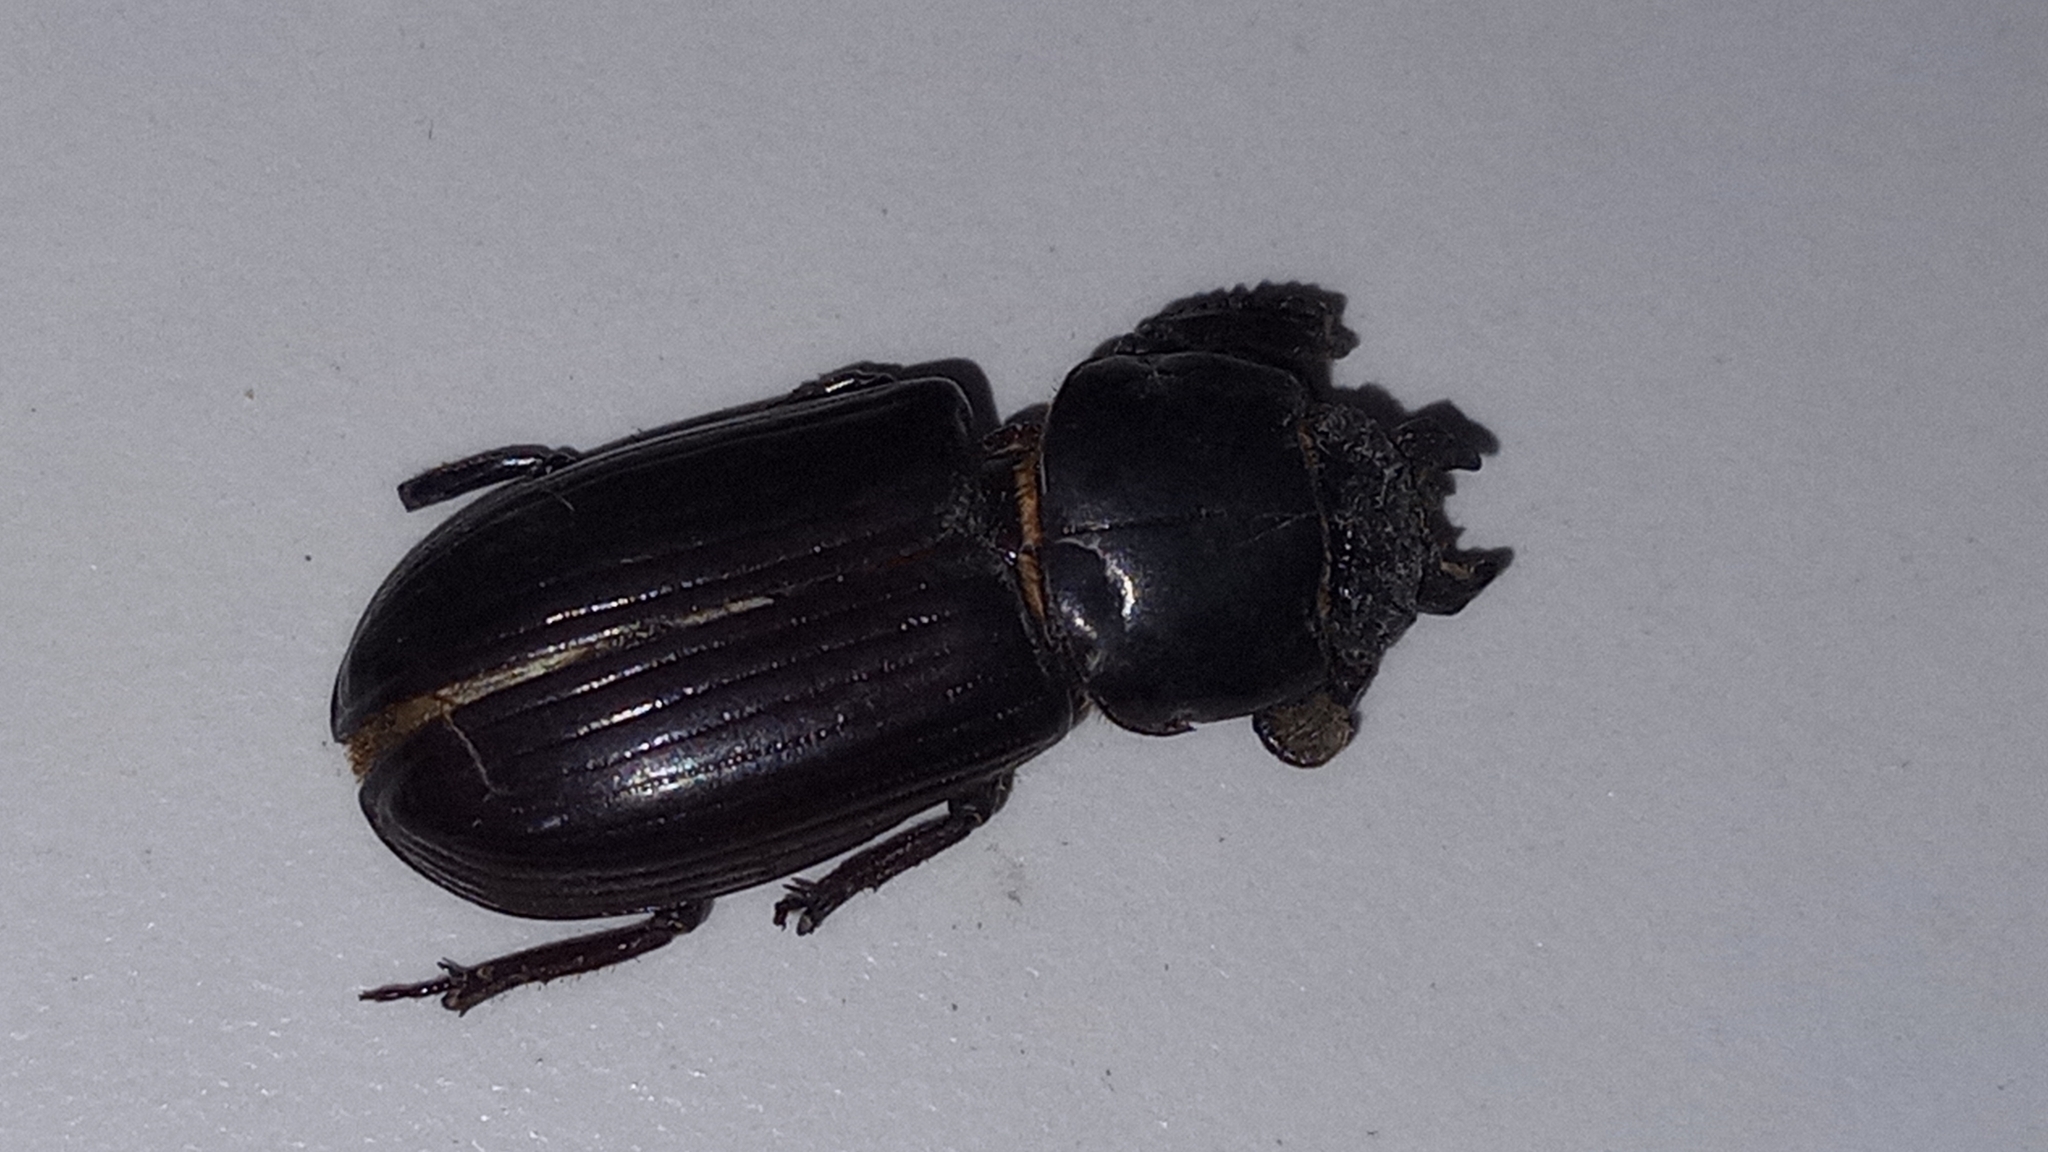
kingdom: Animalia
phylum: Arthropoda
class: Insecta
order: Coleoptera
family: Passalidae
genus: Ptichopus
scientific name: Ptichopus angulatus
